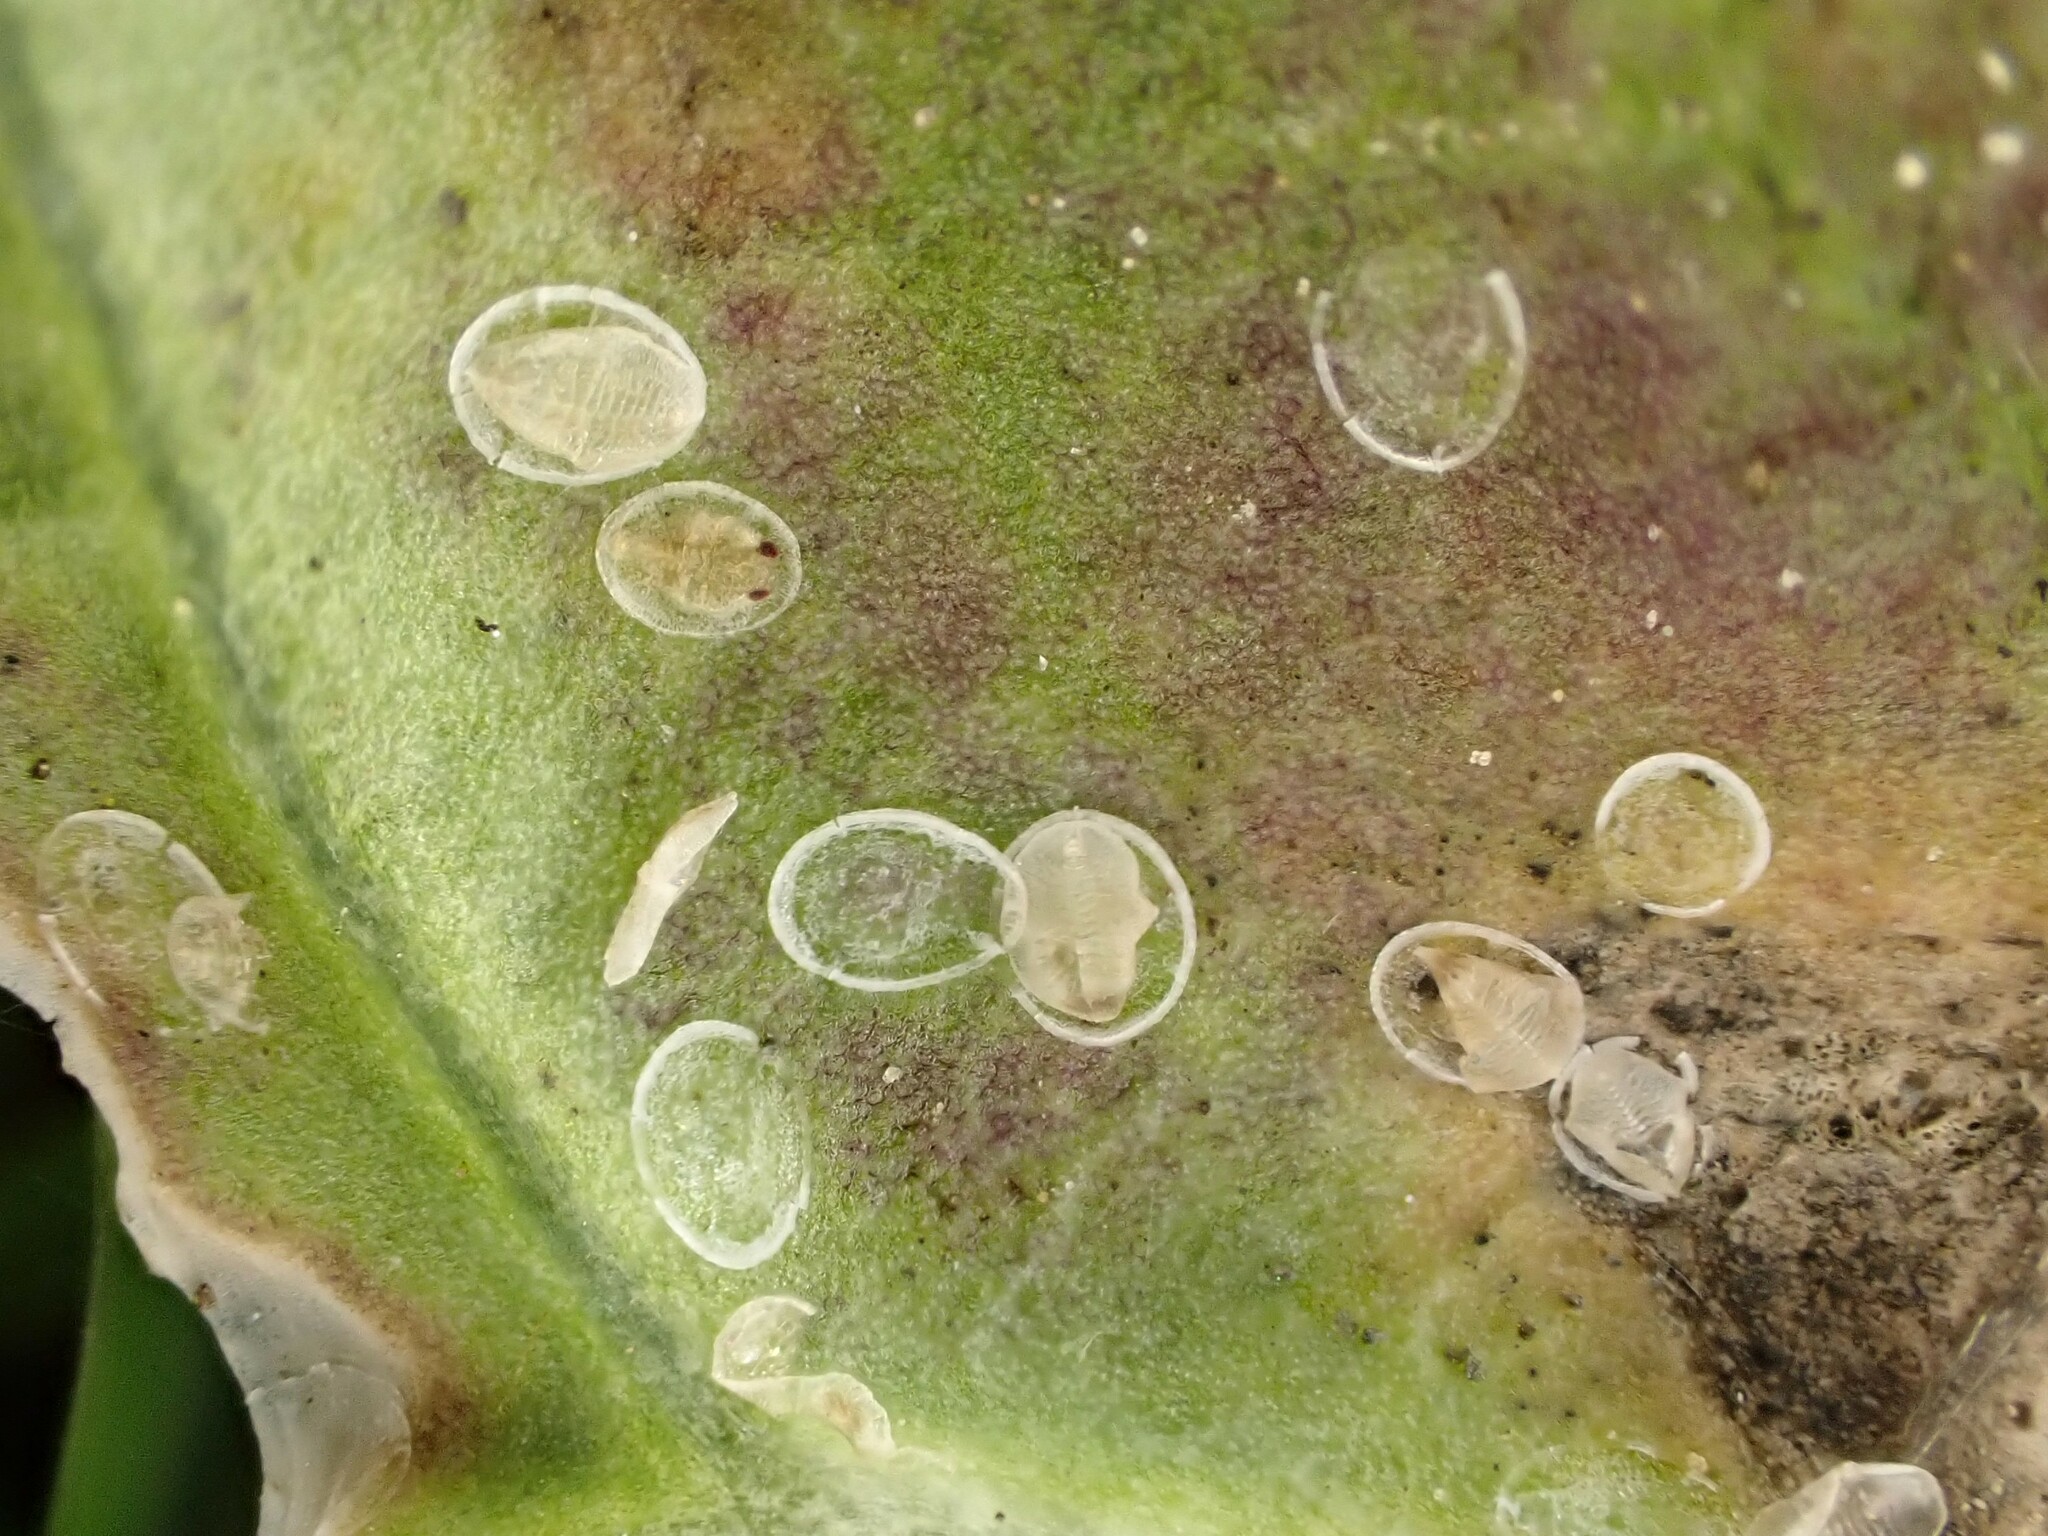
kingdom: Animalia
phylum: Arthropoda
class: Insecta
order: Hemiptera
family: Aleyrodidae
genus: Aleyrodes
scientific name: Aleyrodes proletella
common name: Cabbage whitefly
